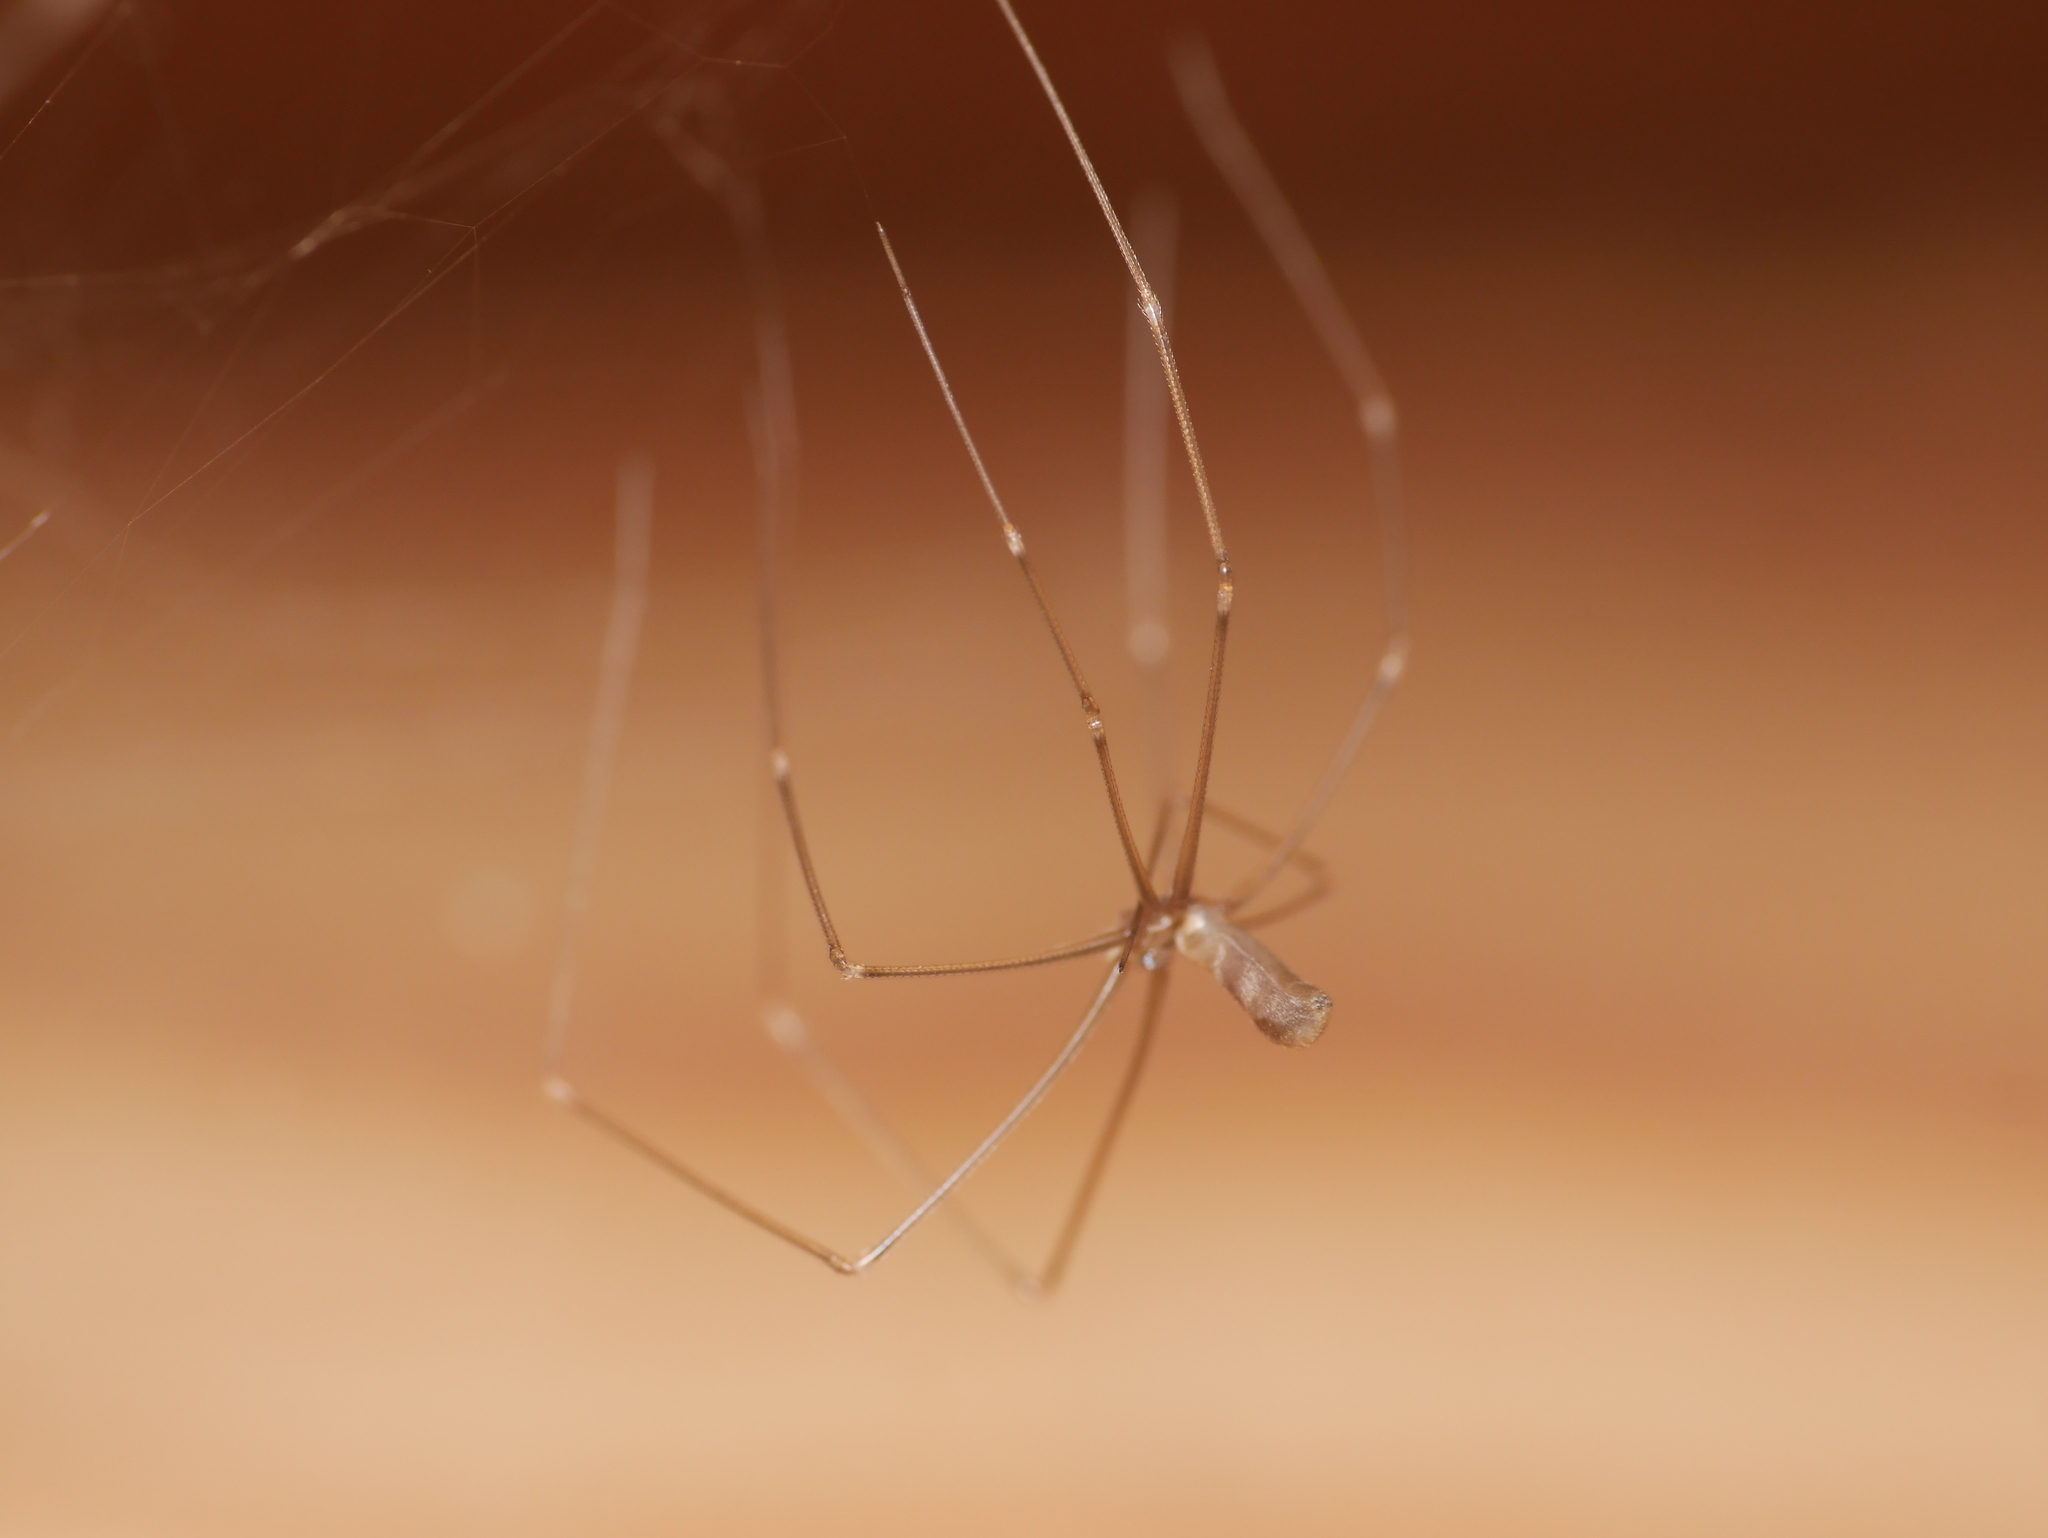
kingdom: Animalia
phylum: Arthropoda
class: Arachnida
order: Araneae
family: Pholcidae
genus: Pholcus
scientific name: Pholcus phalangioides
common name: Longbodied cellar spider
